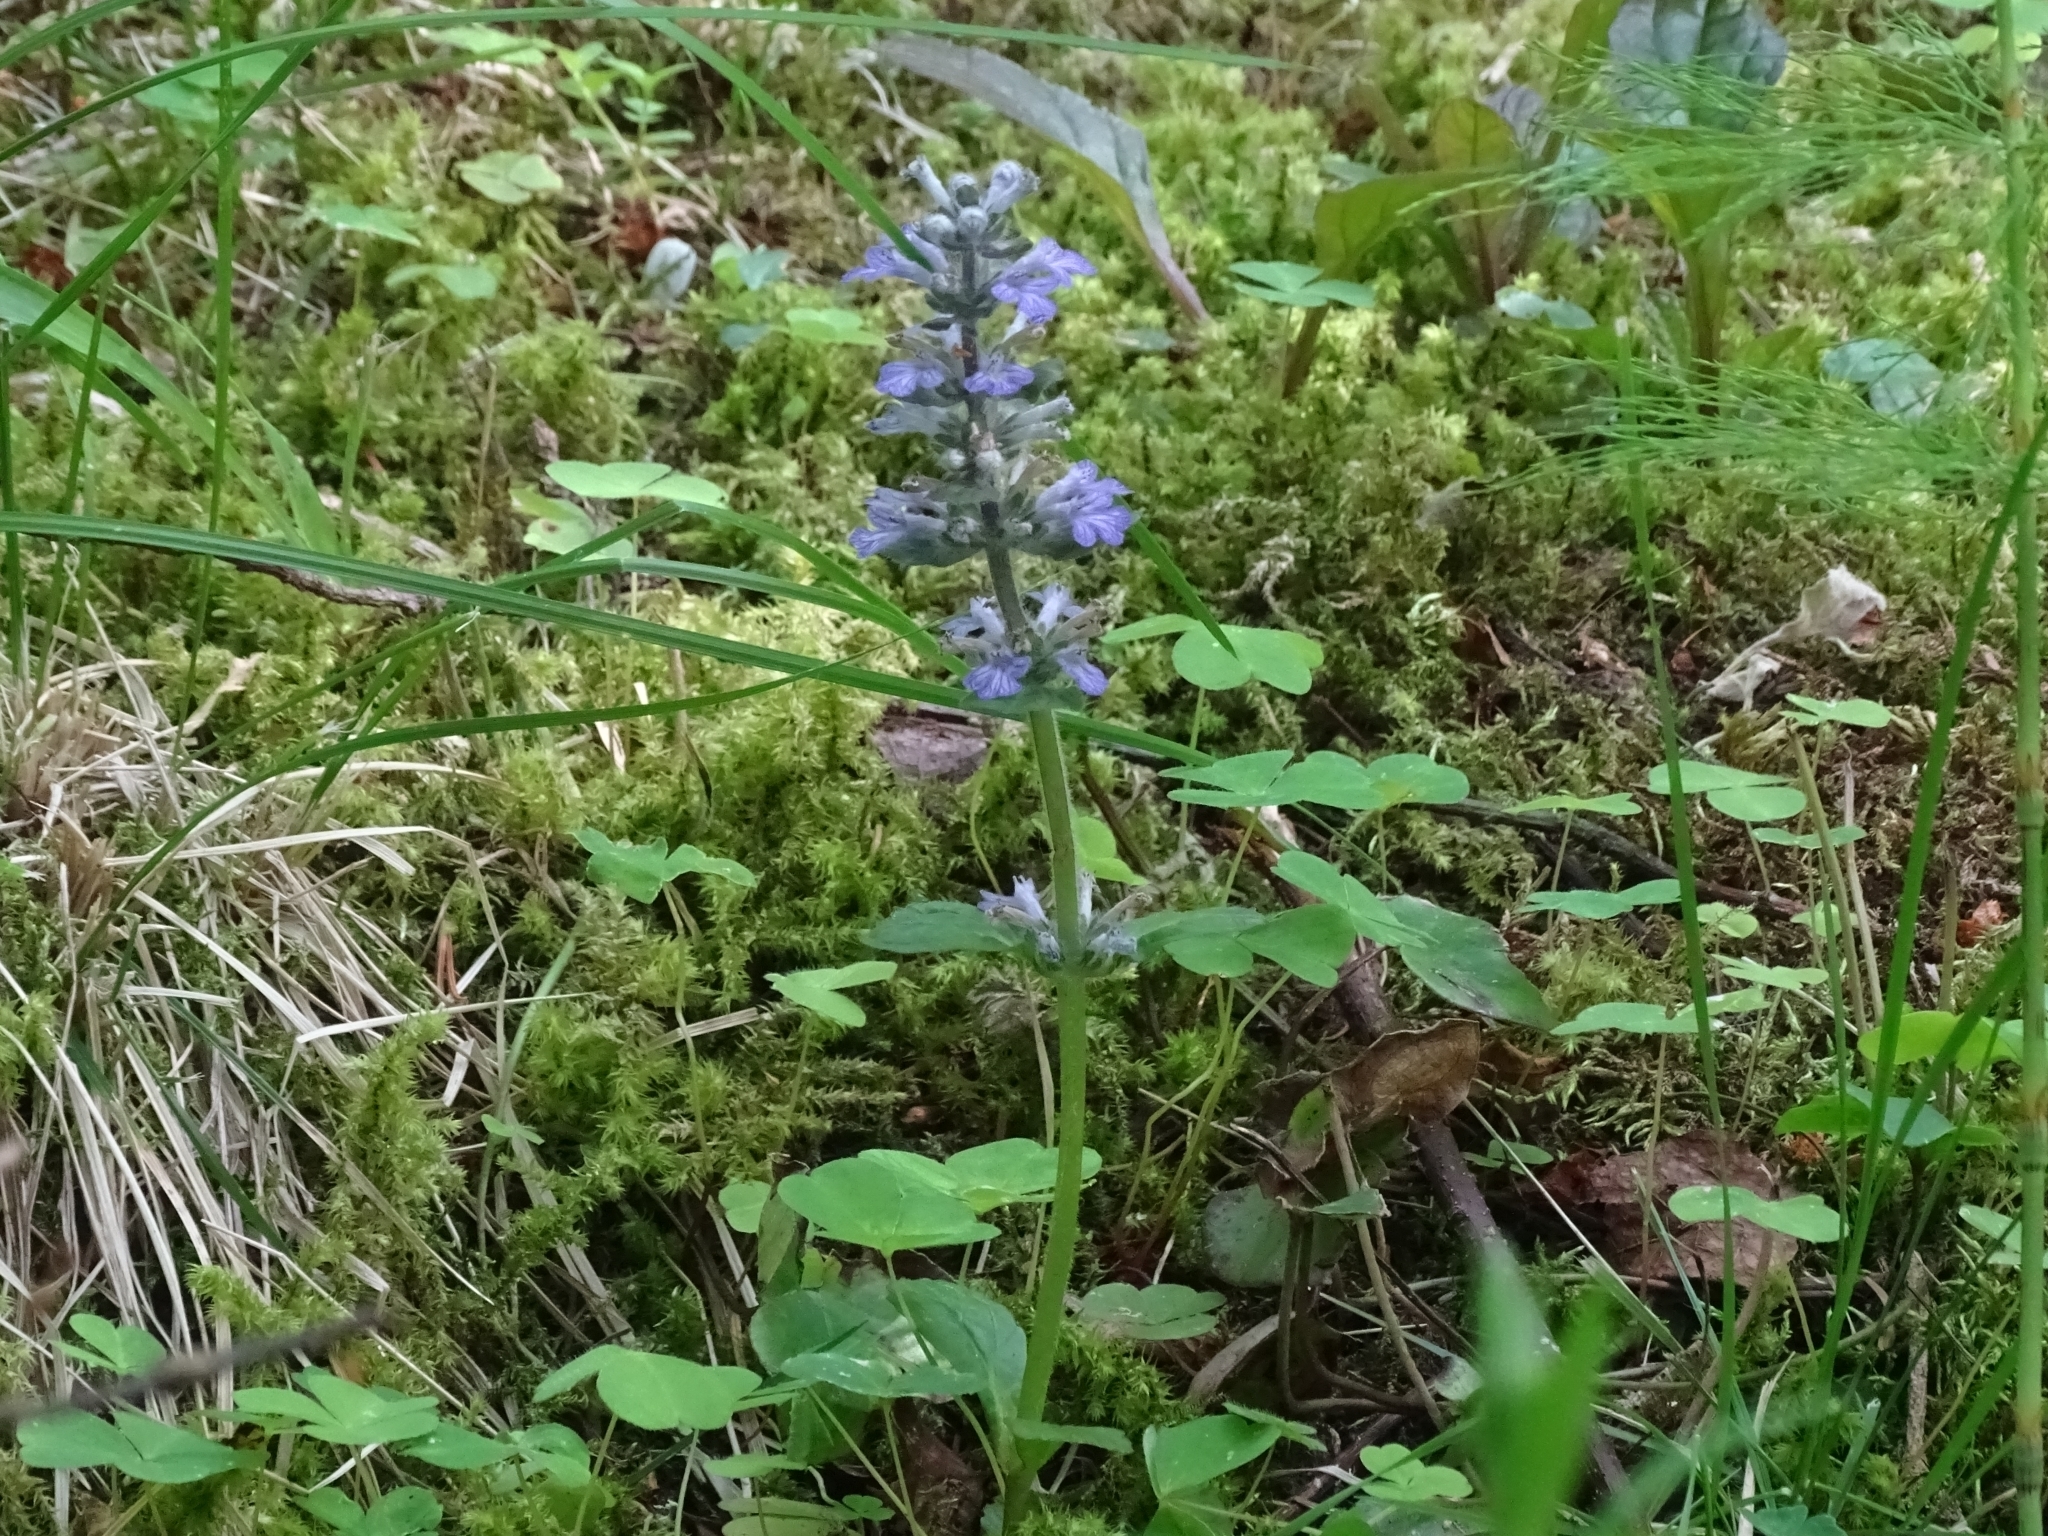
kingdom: Plantae
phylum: Tracheophyta
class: Magnoliopsida
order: Lamiales
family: Lamiaceae
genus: Ajuga
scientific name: Ajuga reptans
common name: Bugle
